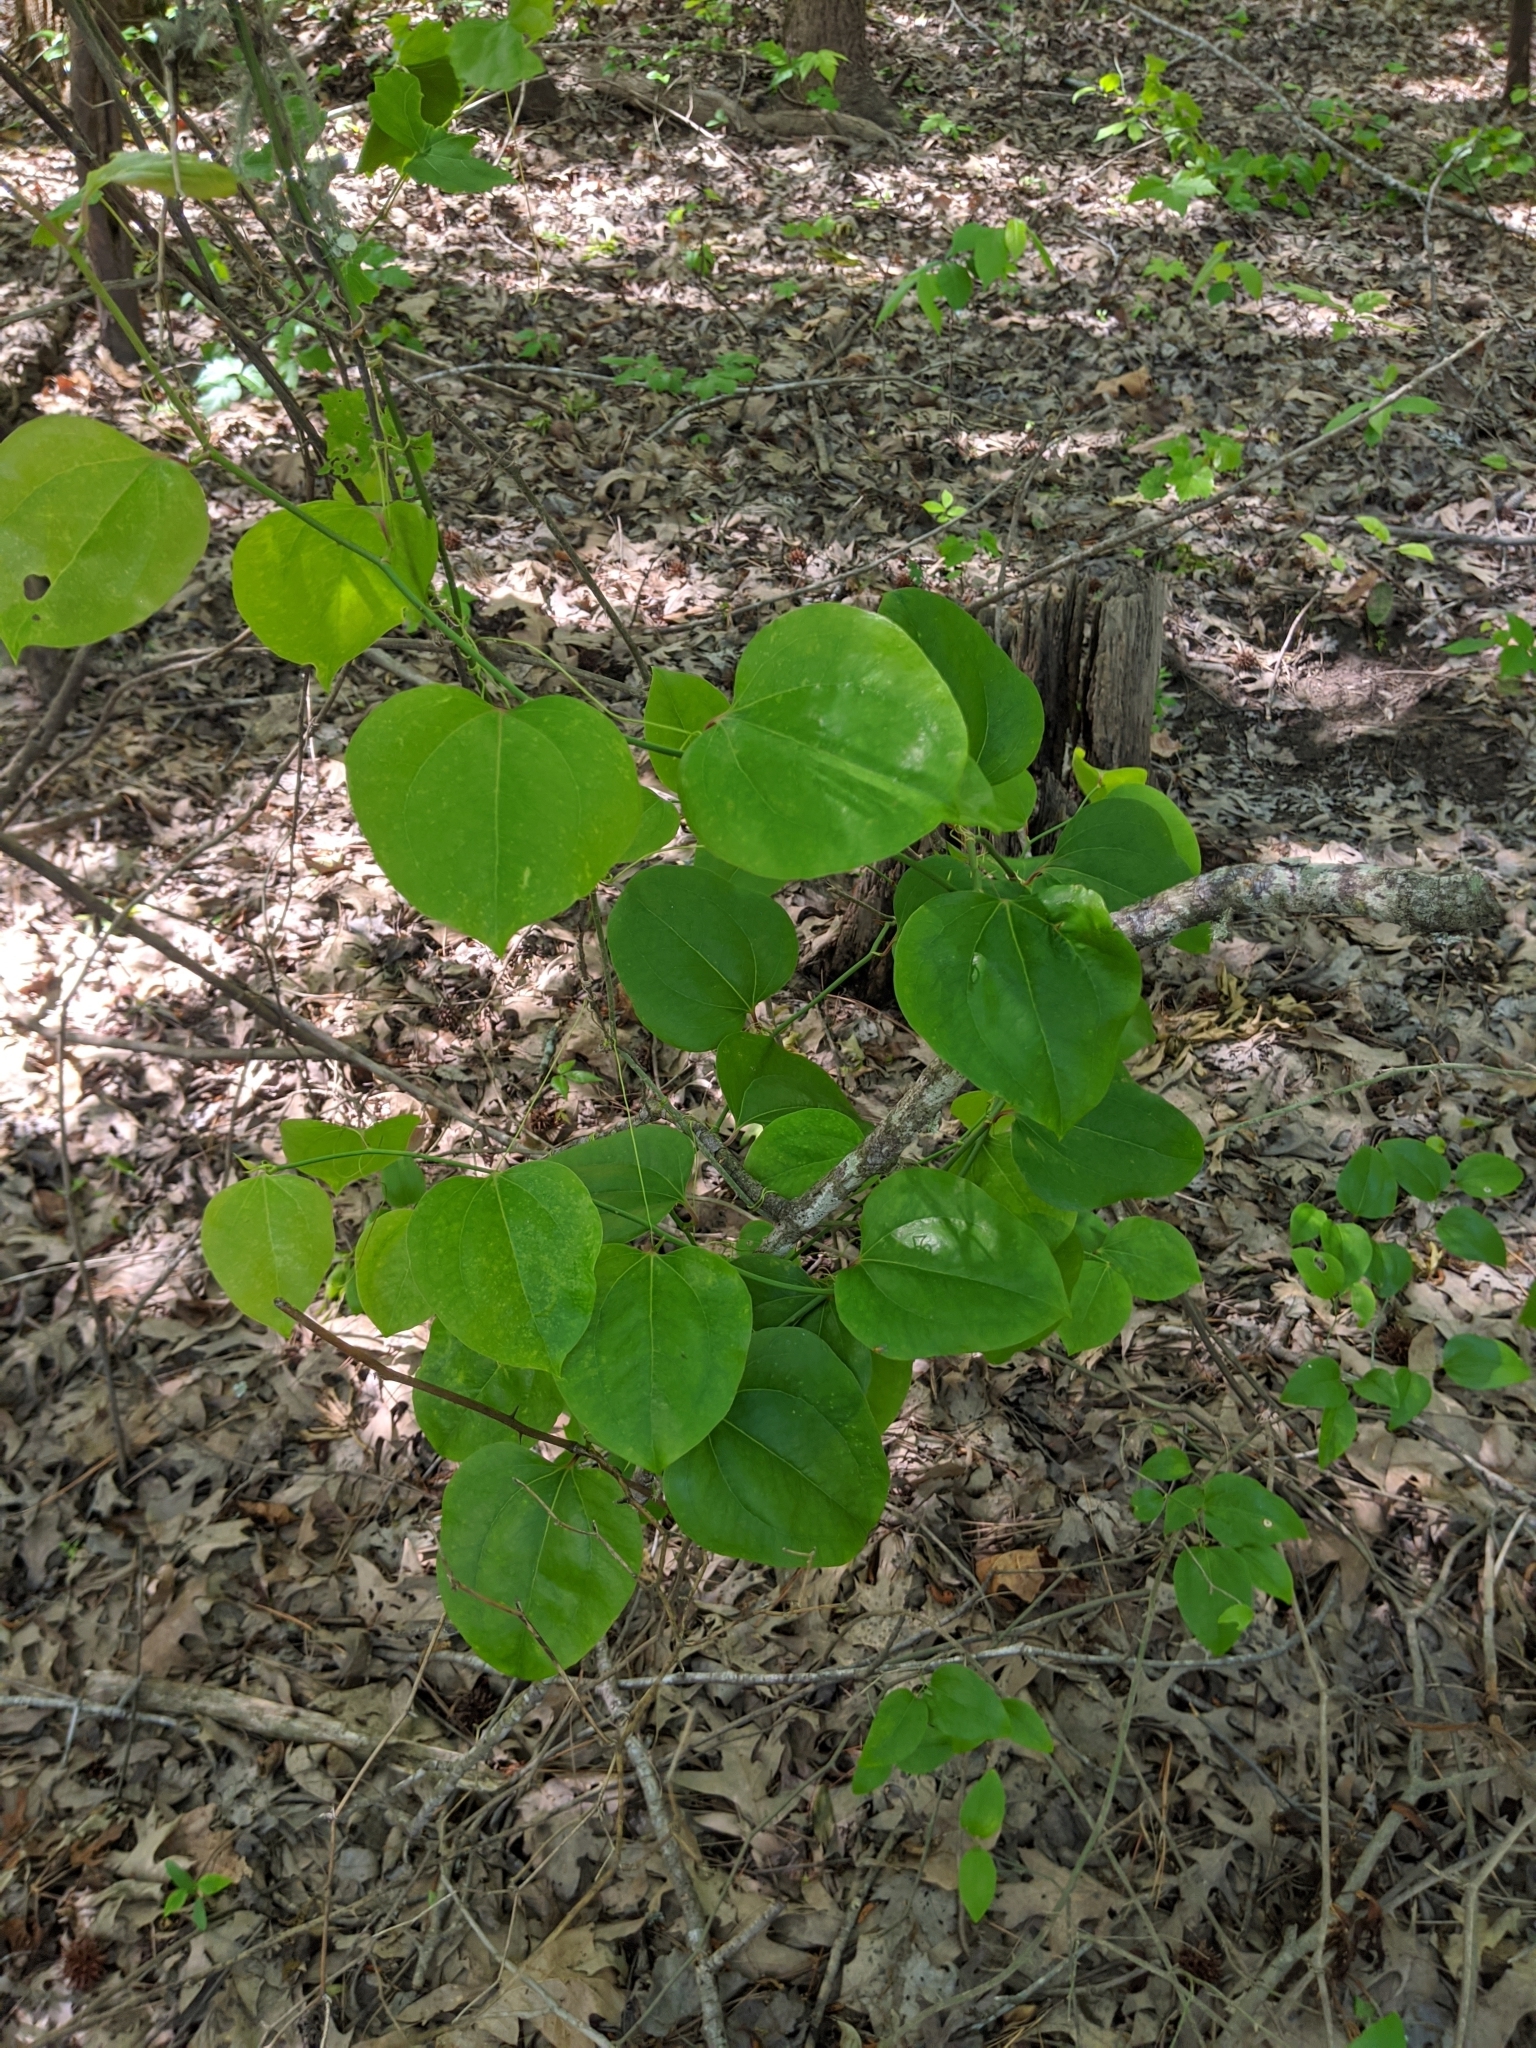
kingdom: Plantae
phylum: Tracheophyta
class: Liliopsida
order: Liliales
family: Smilacaceae
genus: Smilax
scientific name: Smilax rotundifolia
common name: Bullbriar
